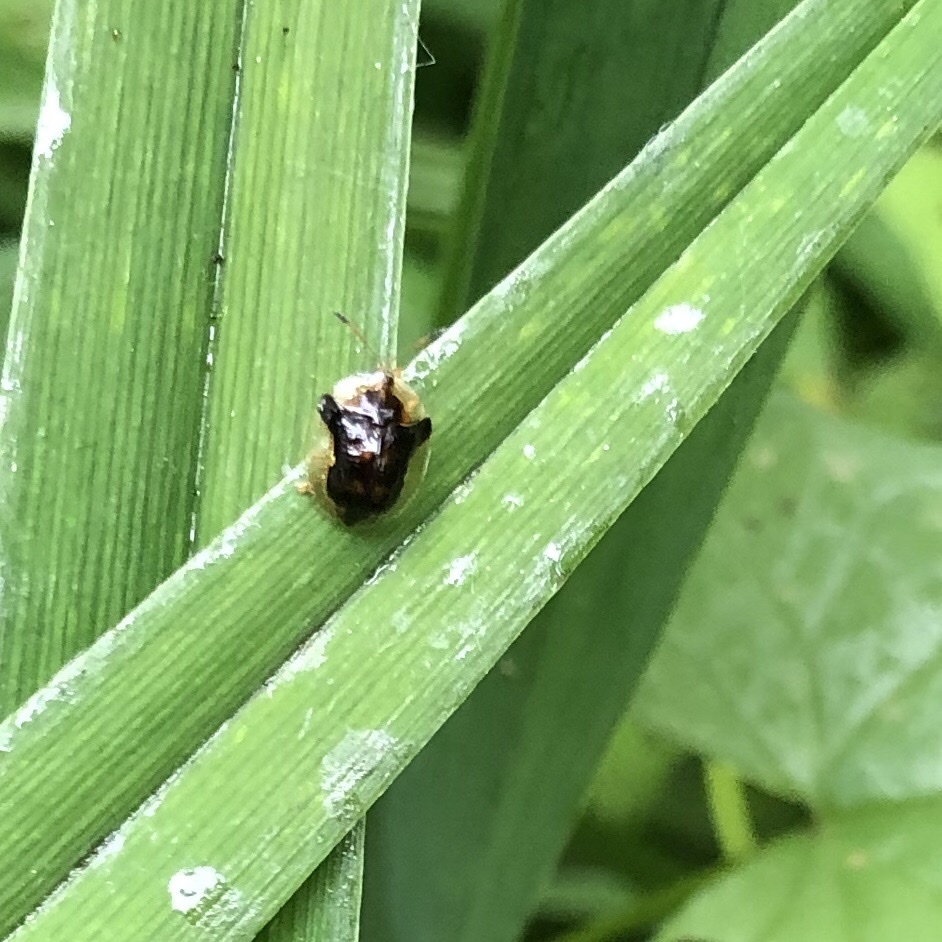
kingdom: Animalia
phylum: Arthropoda
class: Insecta
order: Coleoptera
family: Chrysomelidae
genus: Deloyala
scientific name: Deloyala guttata
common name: Mottled tortoise beetle
